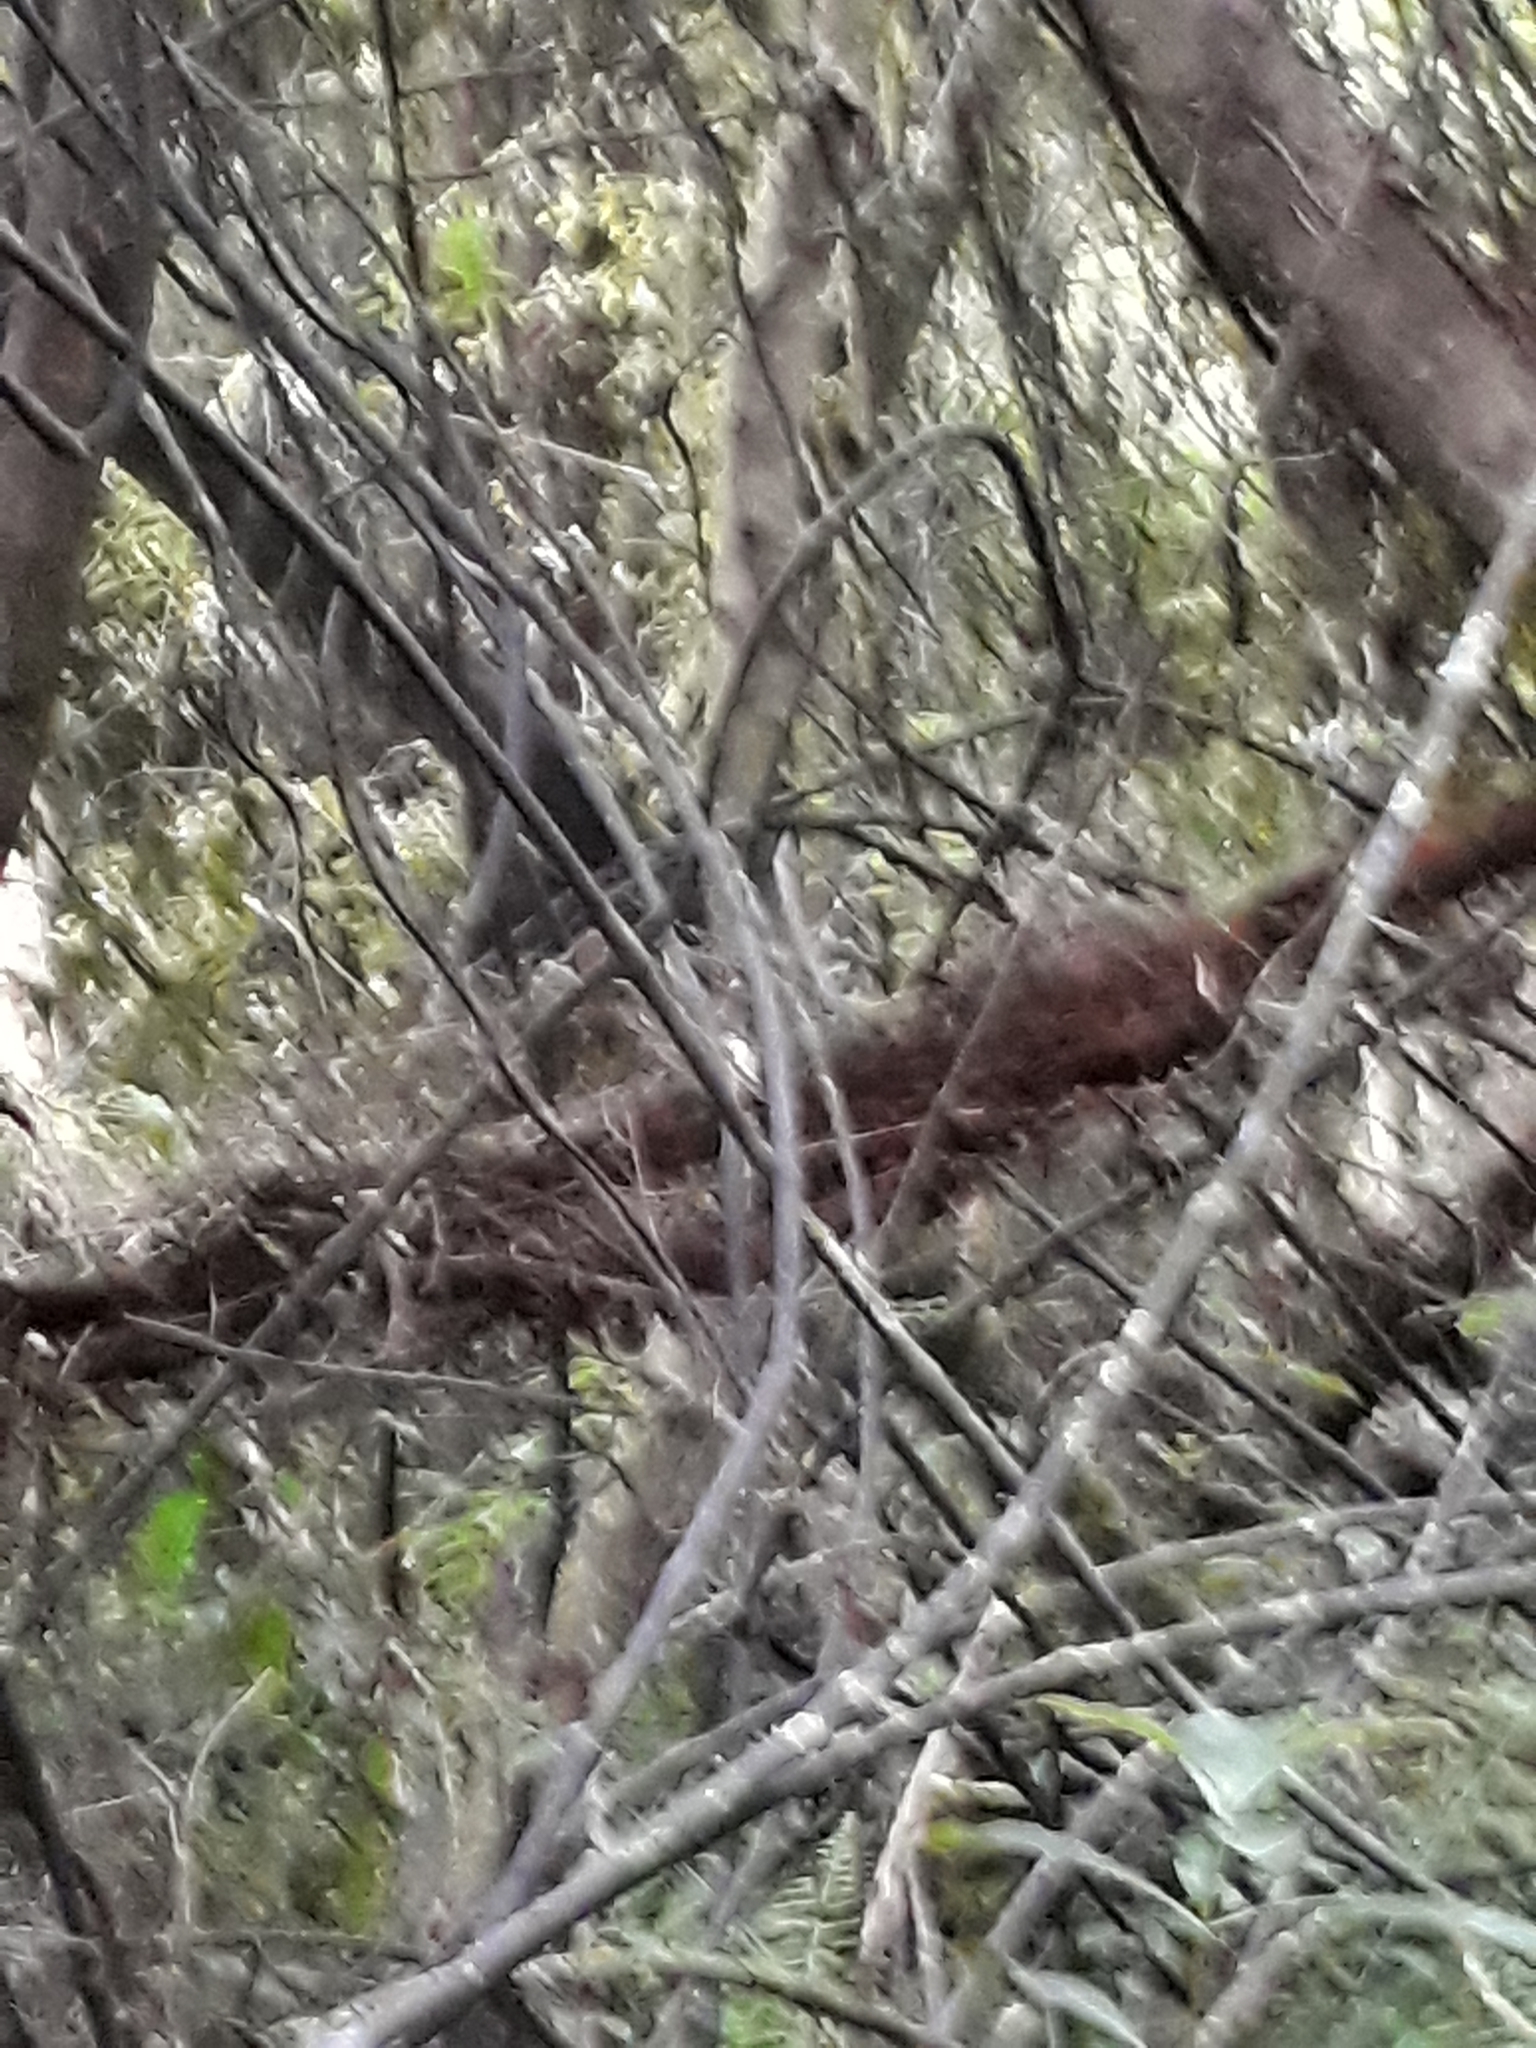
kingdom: Plantae
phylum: Tracheophyta
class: Liliopsida
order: Liliales
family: Ripogonaceae
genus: Ripogonum
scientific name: Ripogonum scandens
